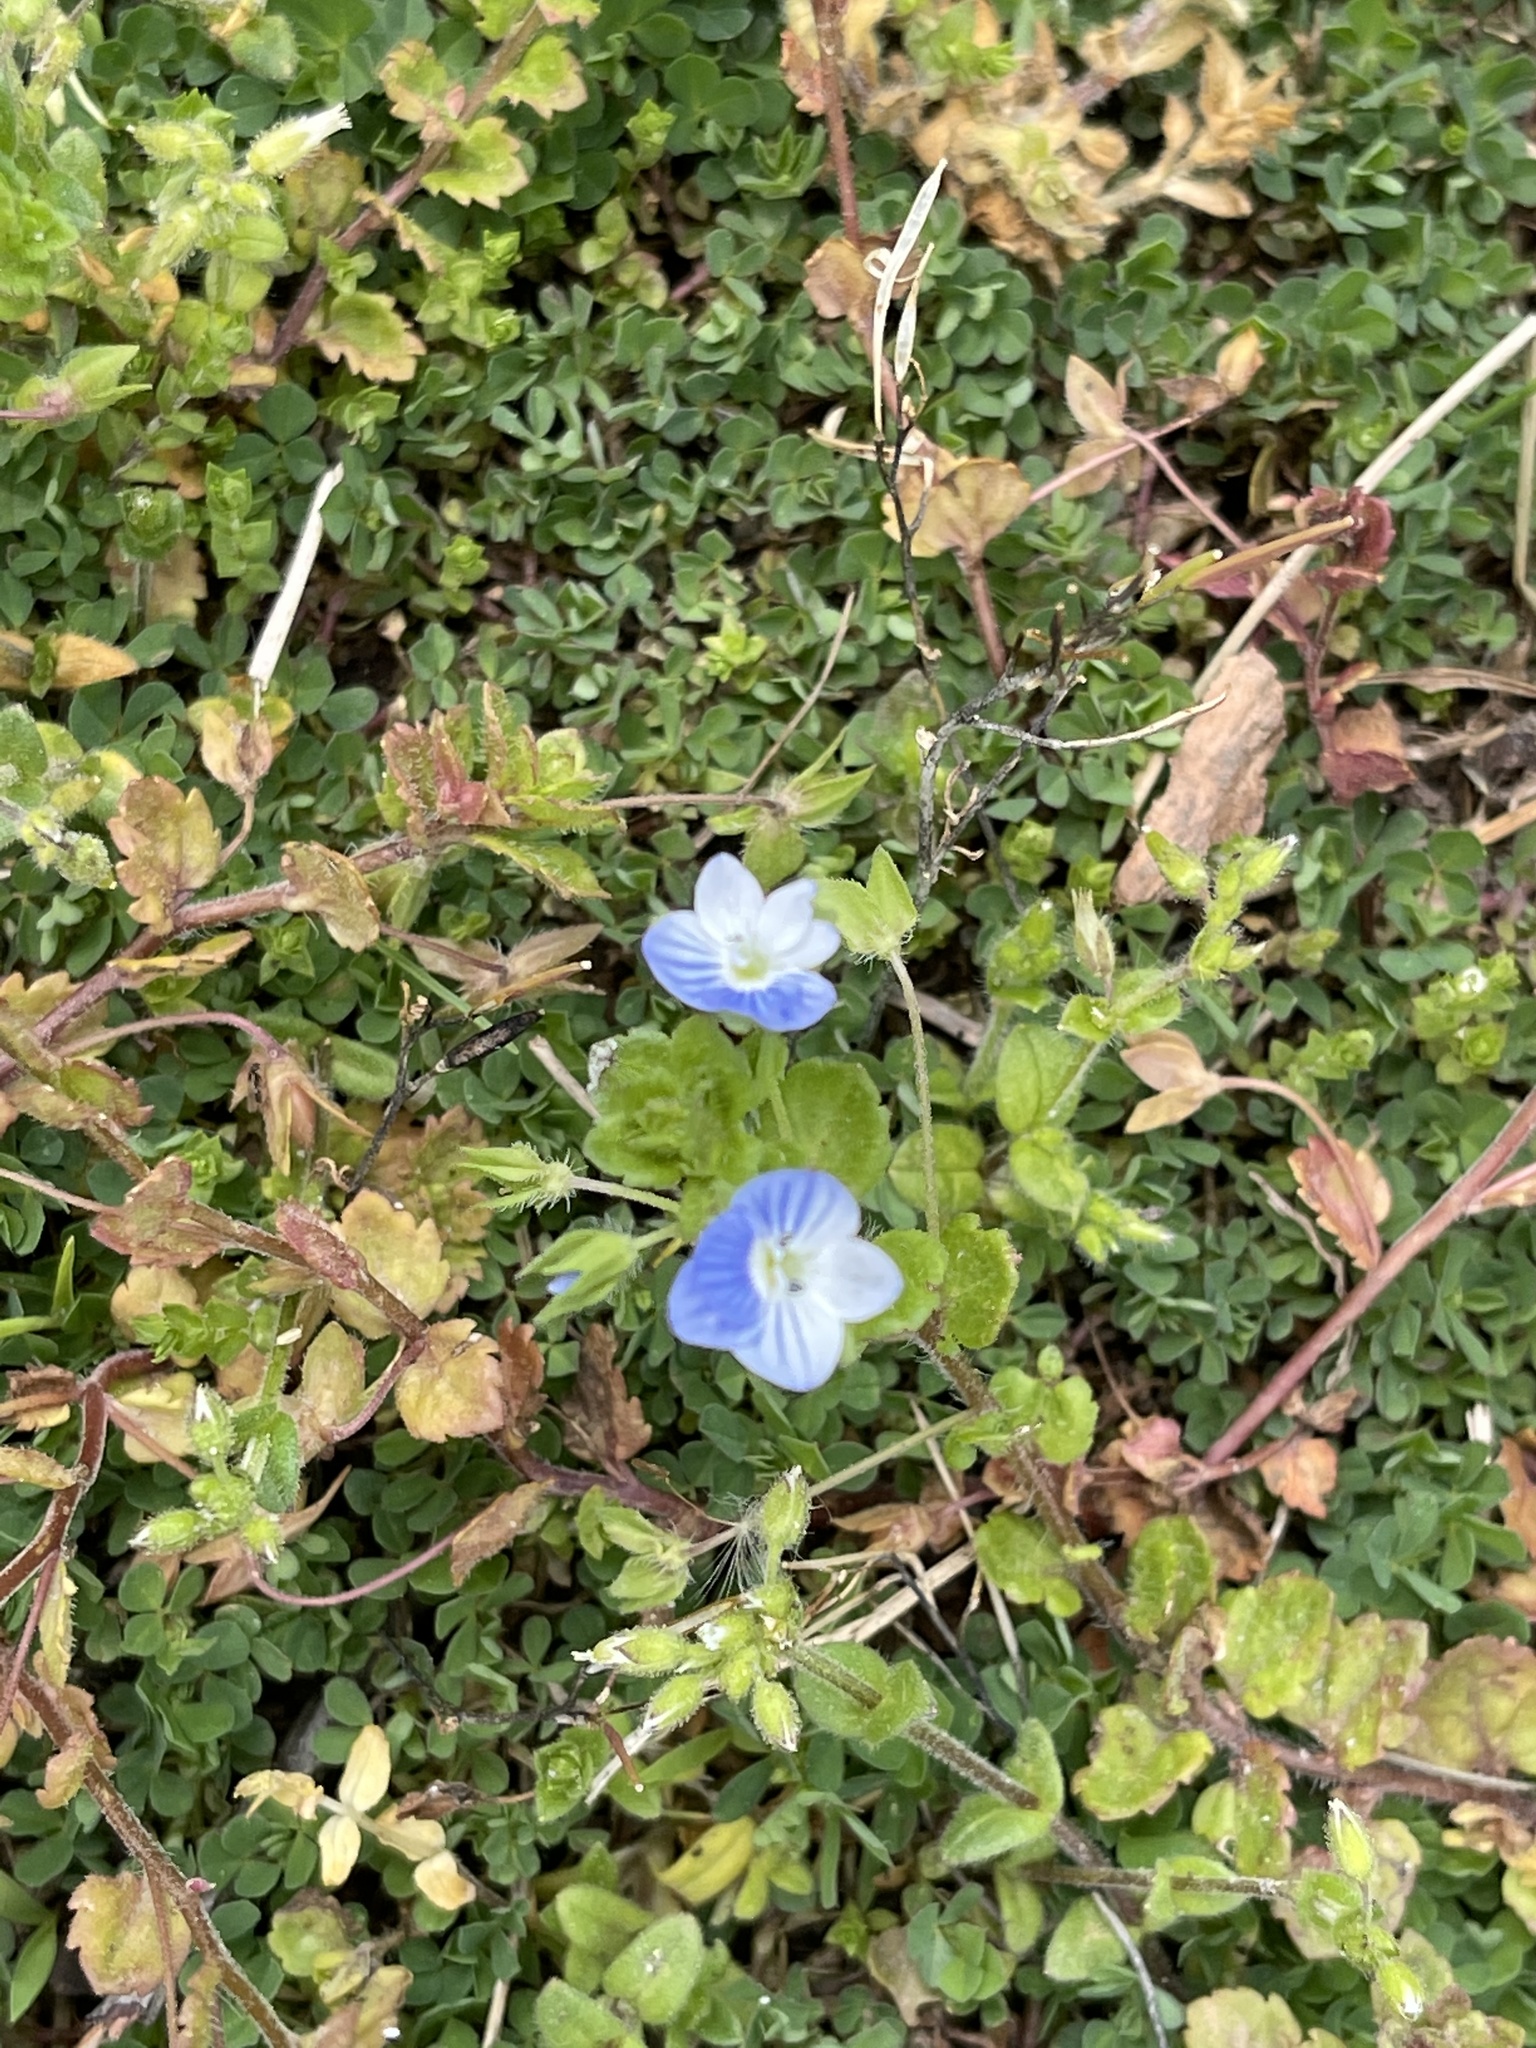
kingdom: Plantae
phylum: Tracheophyta
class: Magnoliopsida
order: Lamiales
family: Plantaginaceae
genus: Veronica
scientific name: Veronica persica
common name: Common field-speedwell
